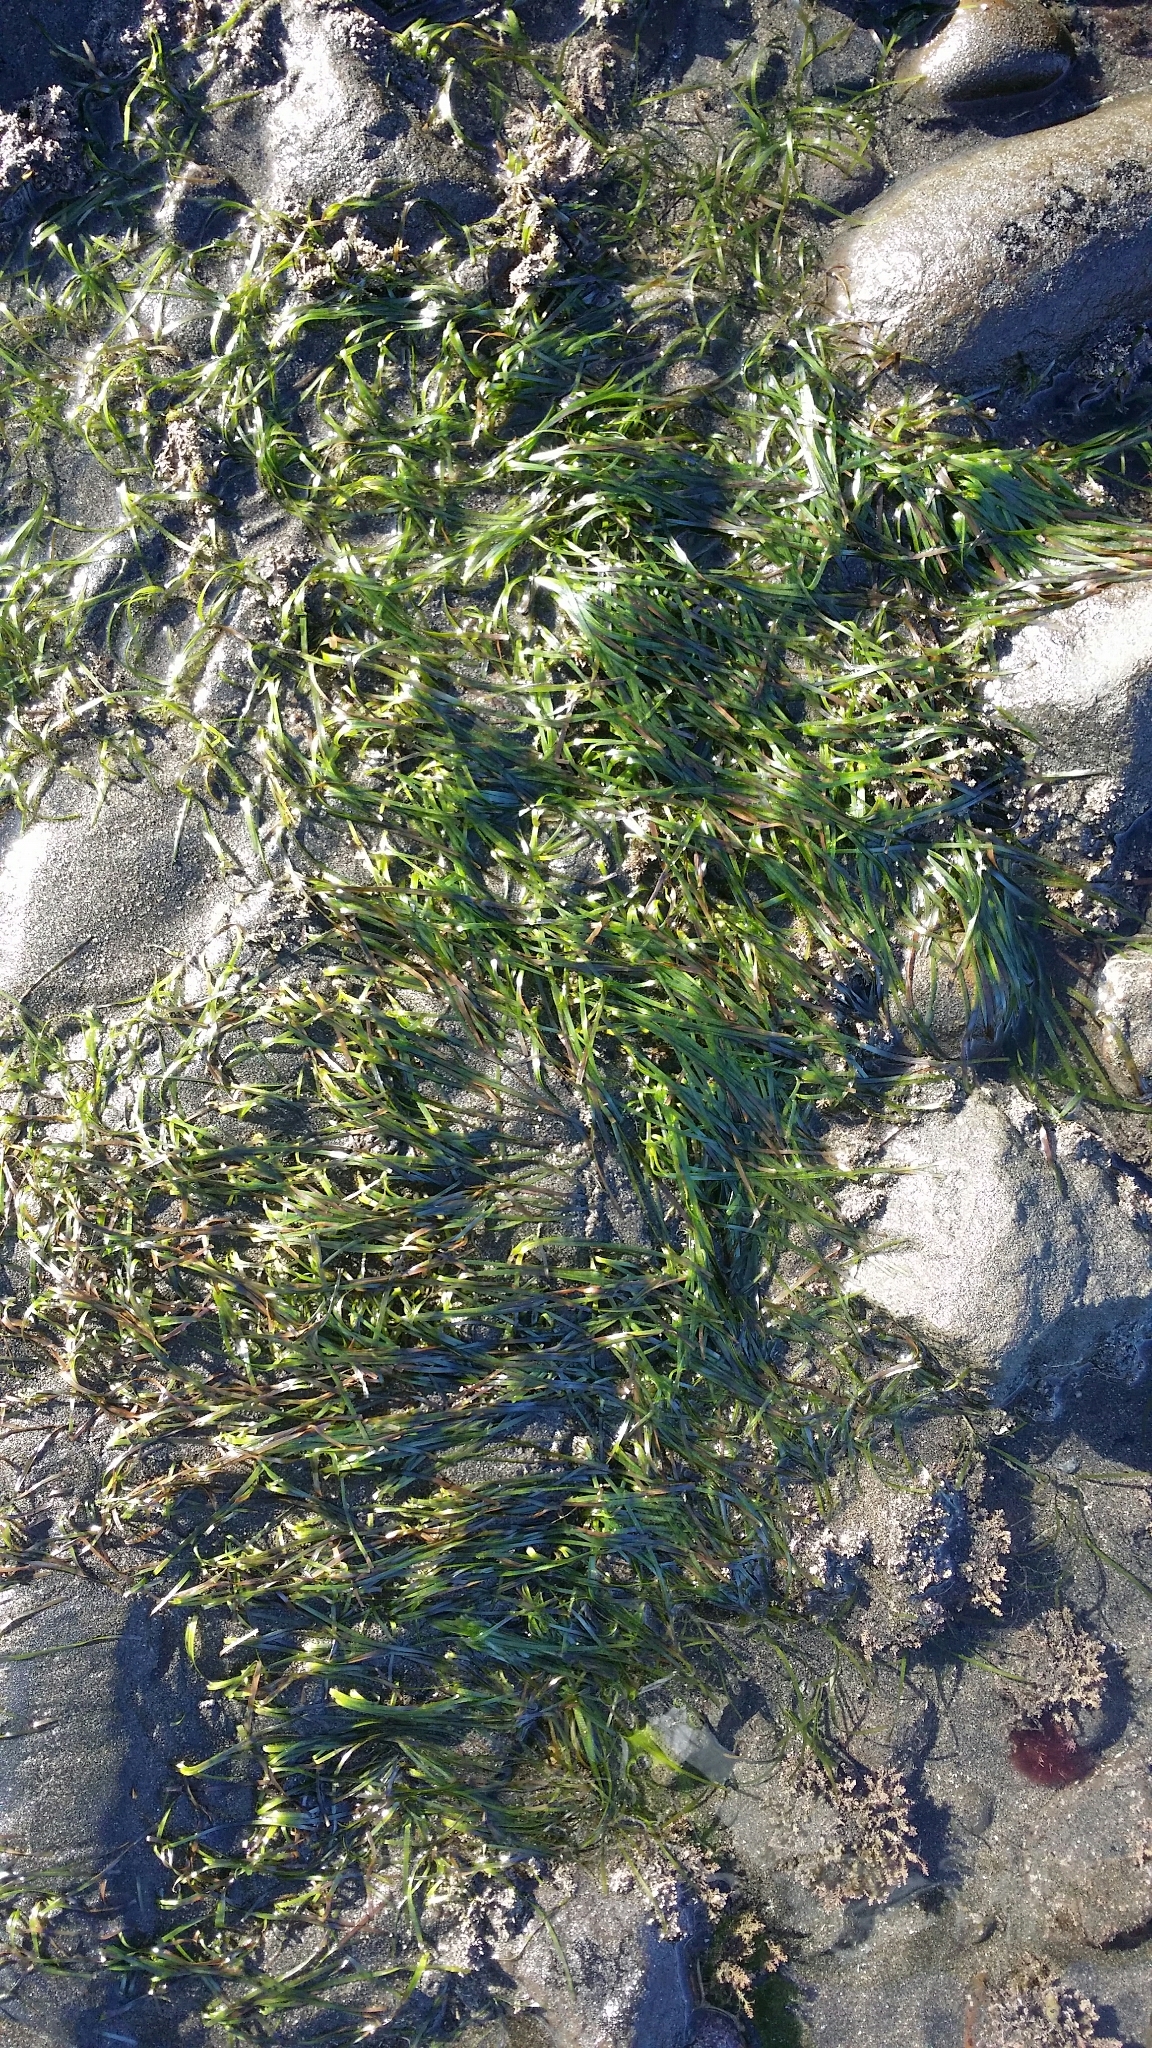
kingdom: Plantae
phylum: Tracheophyta
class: Liliopsida
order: Alismatales
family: Zosteraceae
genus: Zostera
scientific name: Zostera muelleri
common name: Species code: zc
